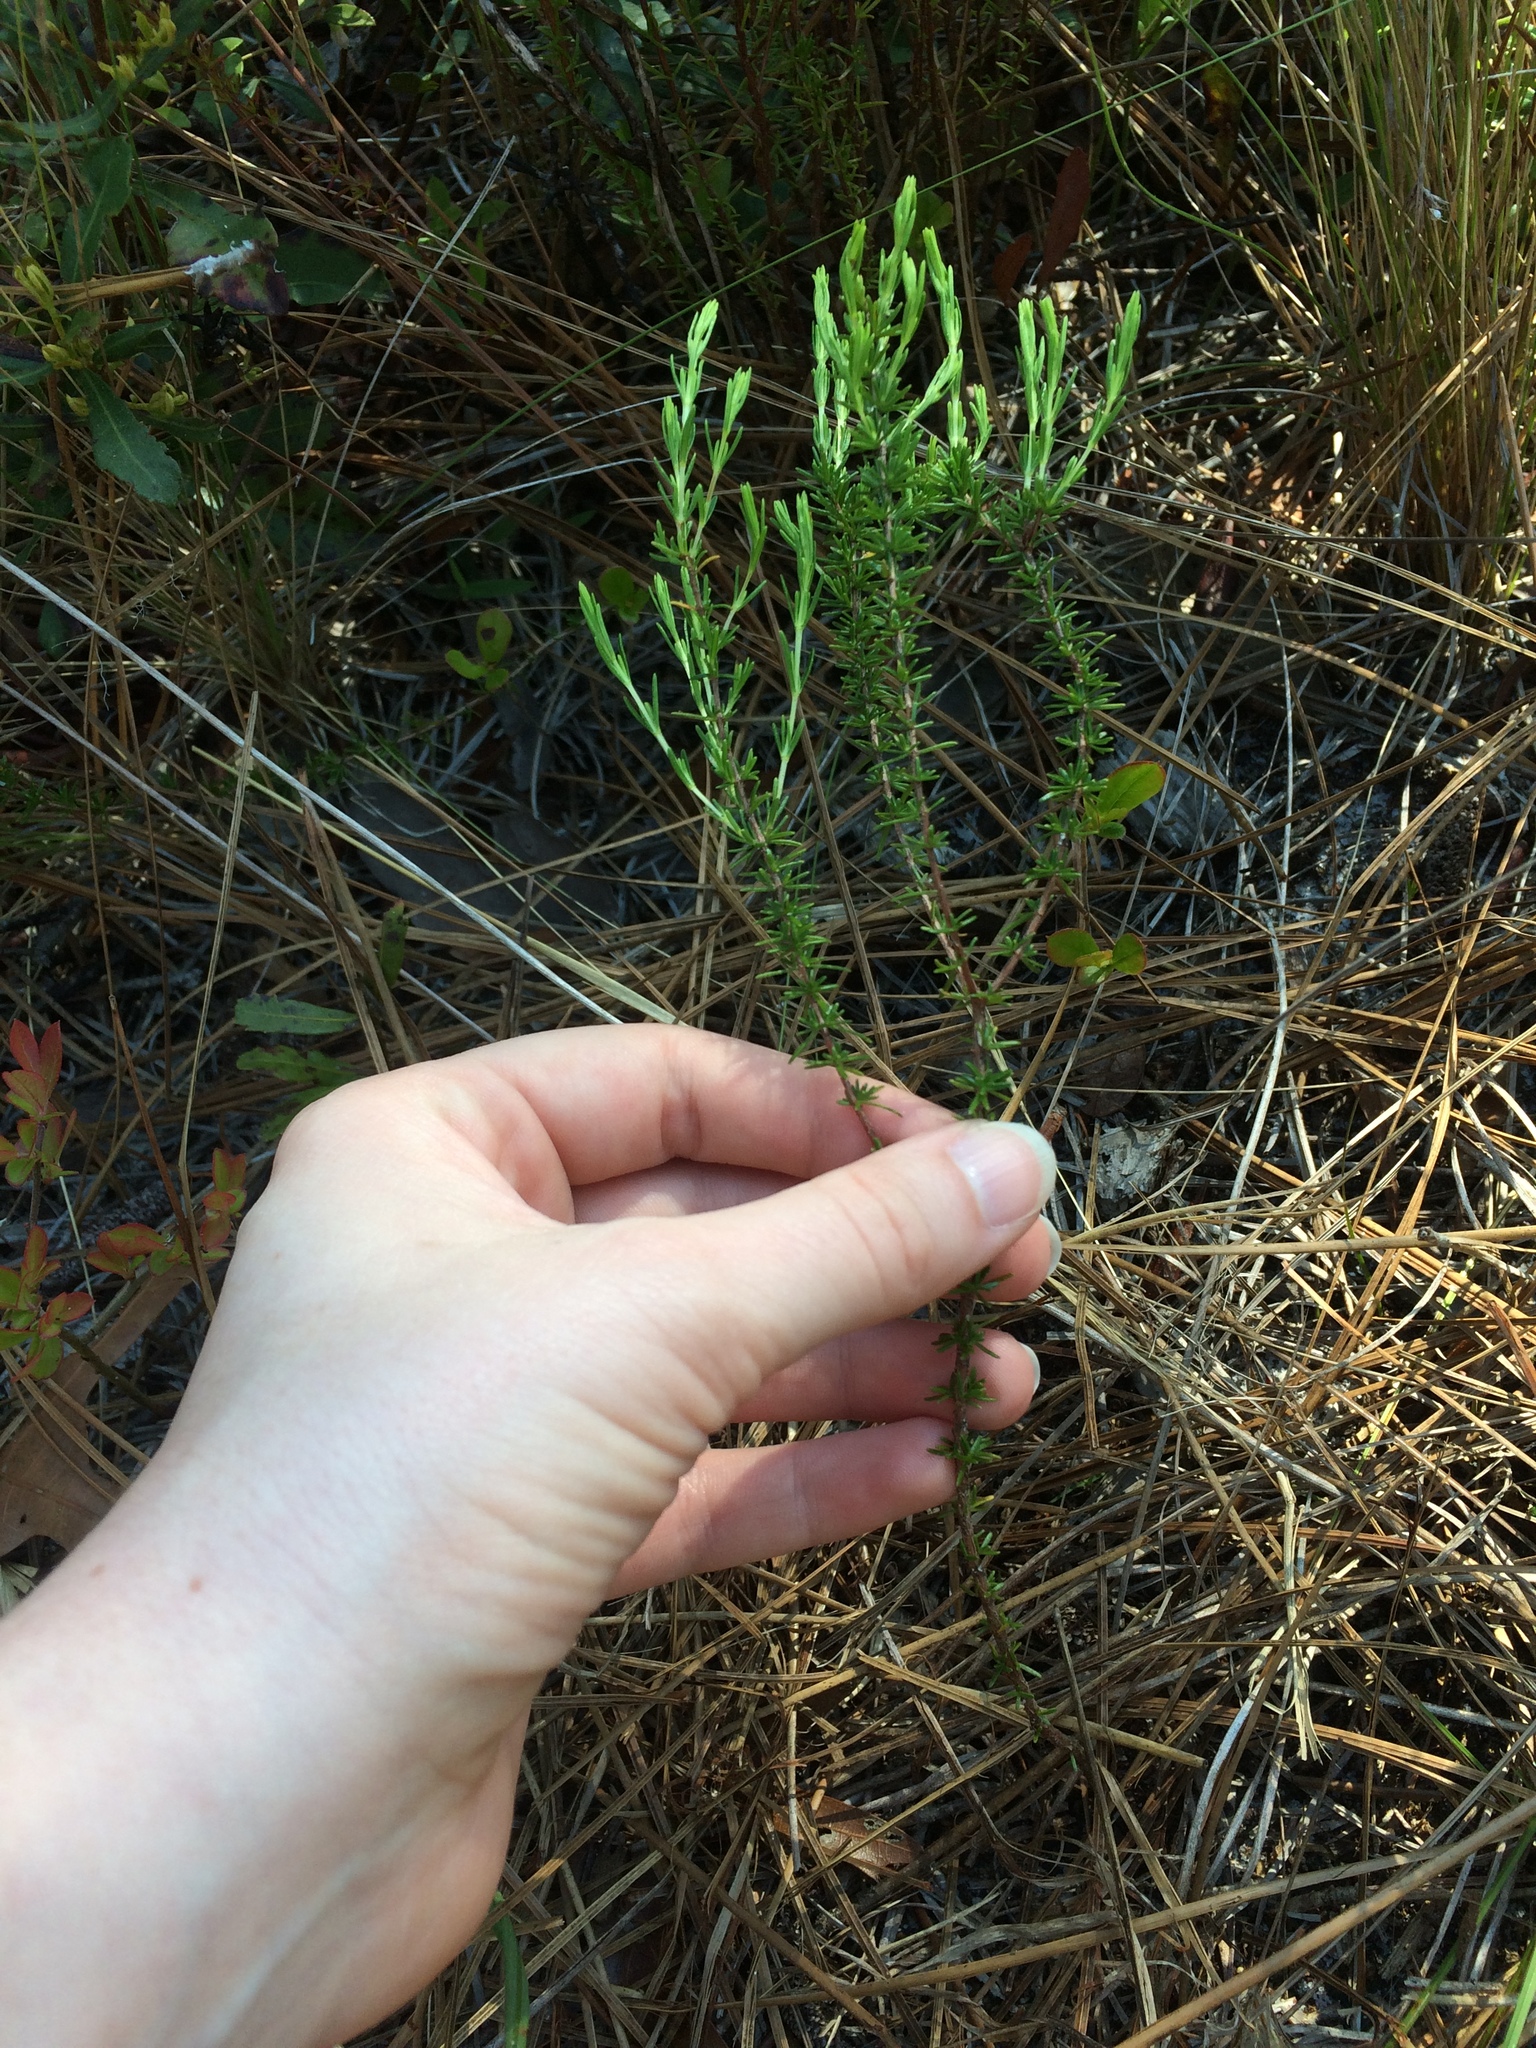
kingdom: Plantae
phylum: Tracheophyta
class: Magnoliopsida
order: Malpighiales
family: Hypericaceae
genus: Hypericum
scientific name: Hypericum tenuifolium
